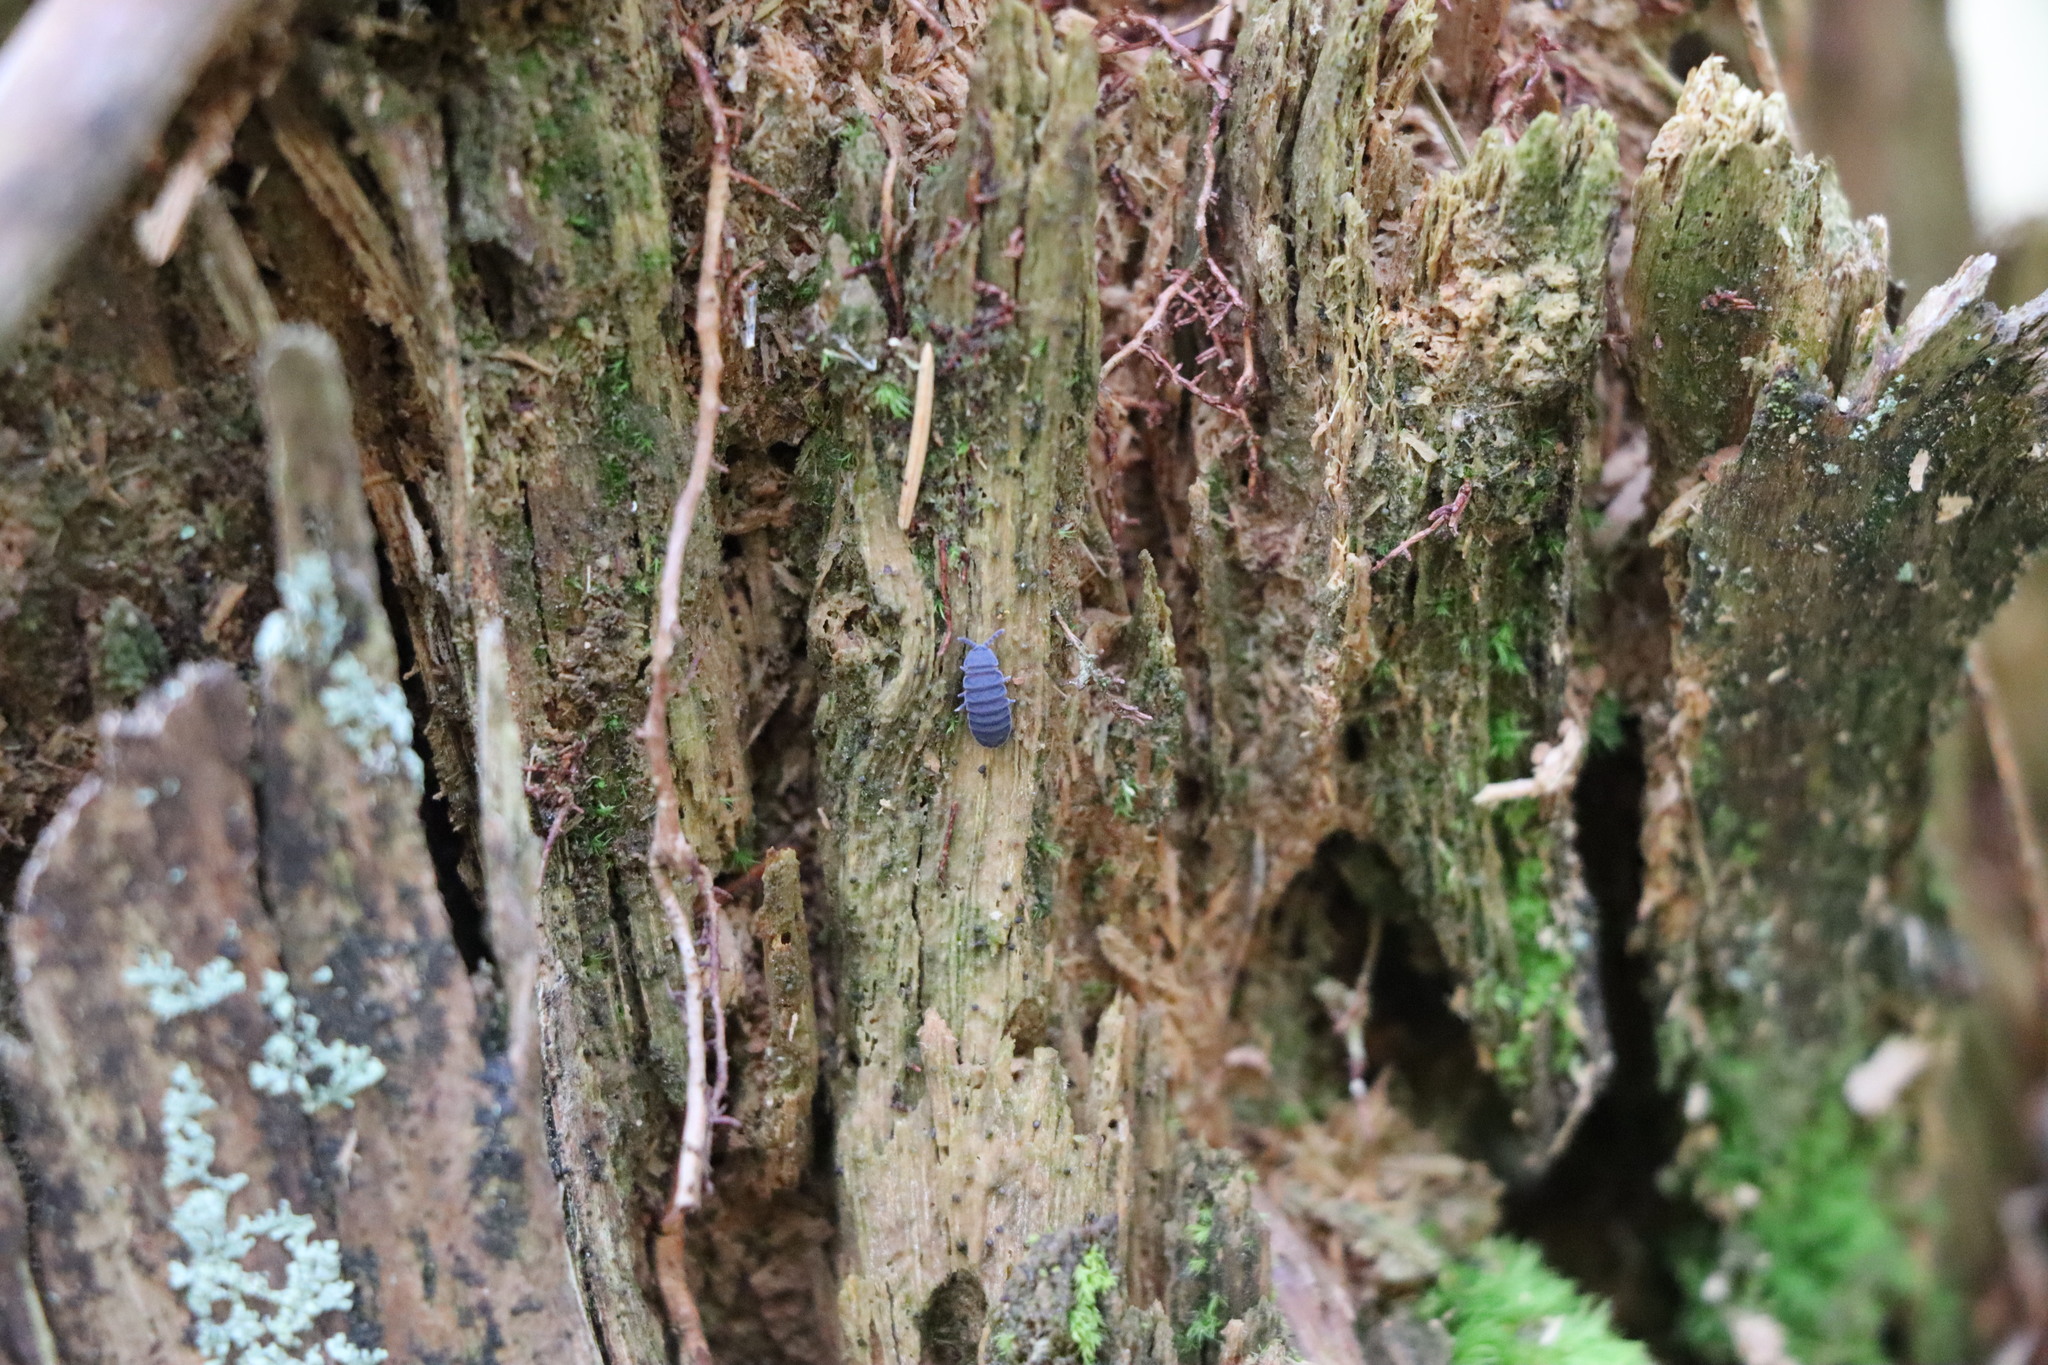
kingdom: Animalia
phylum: Arthropoda
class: Collembola
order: Poduromorpha
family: Onychiuridae
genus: Tetrodontophora
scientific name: Tetrodontophora bielanensis
